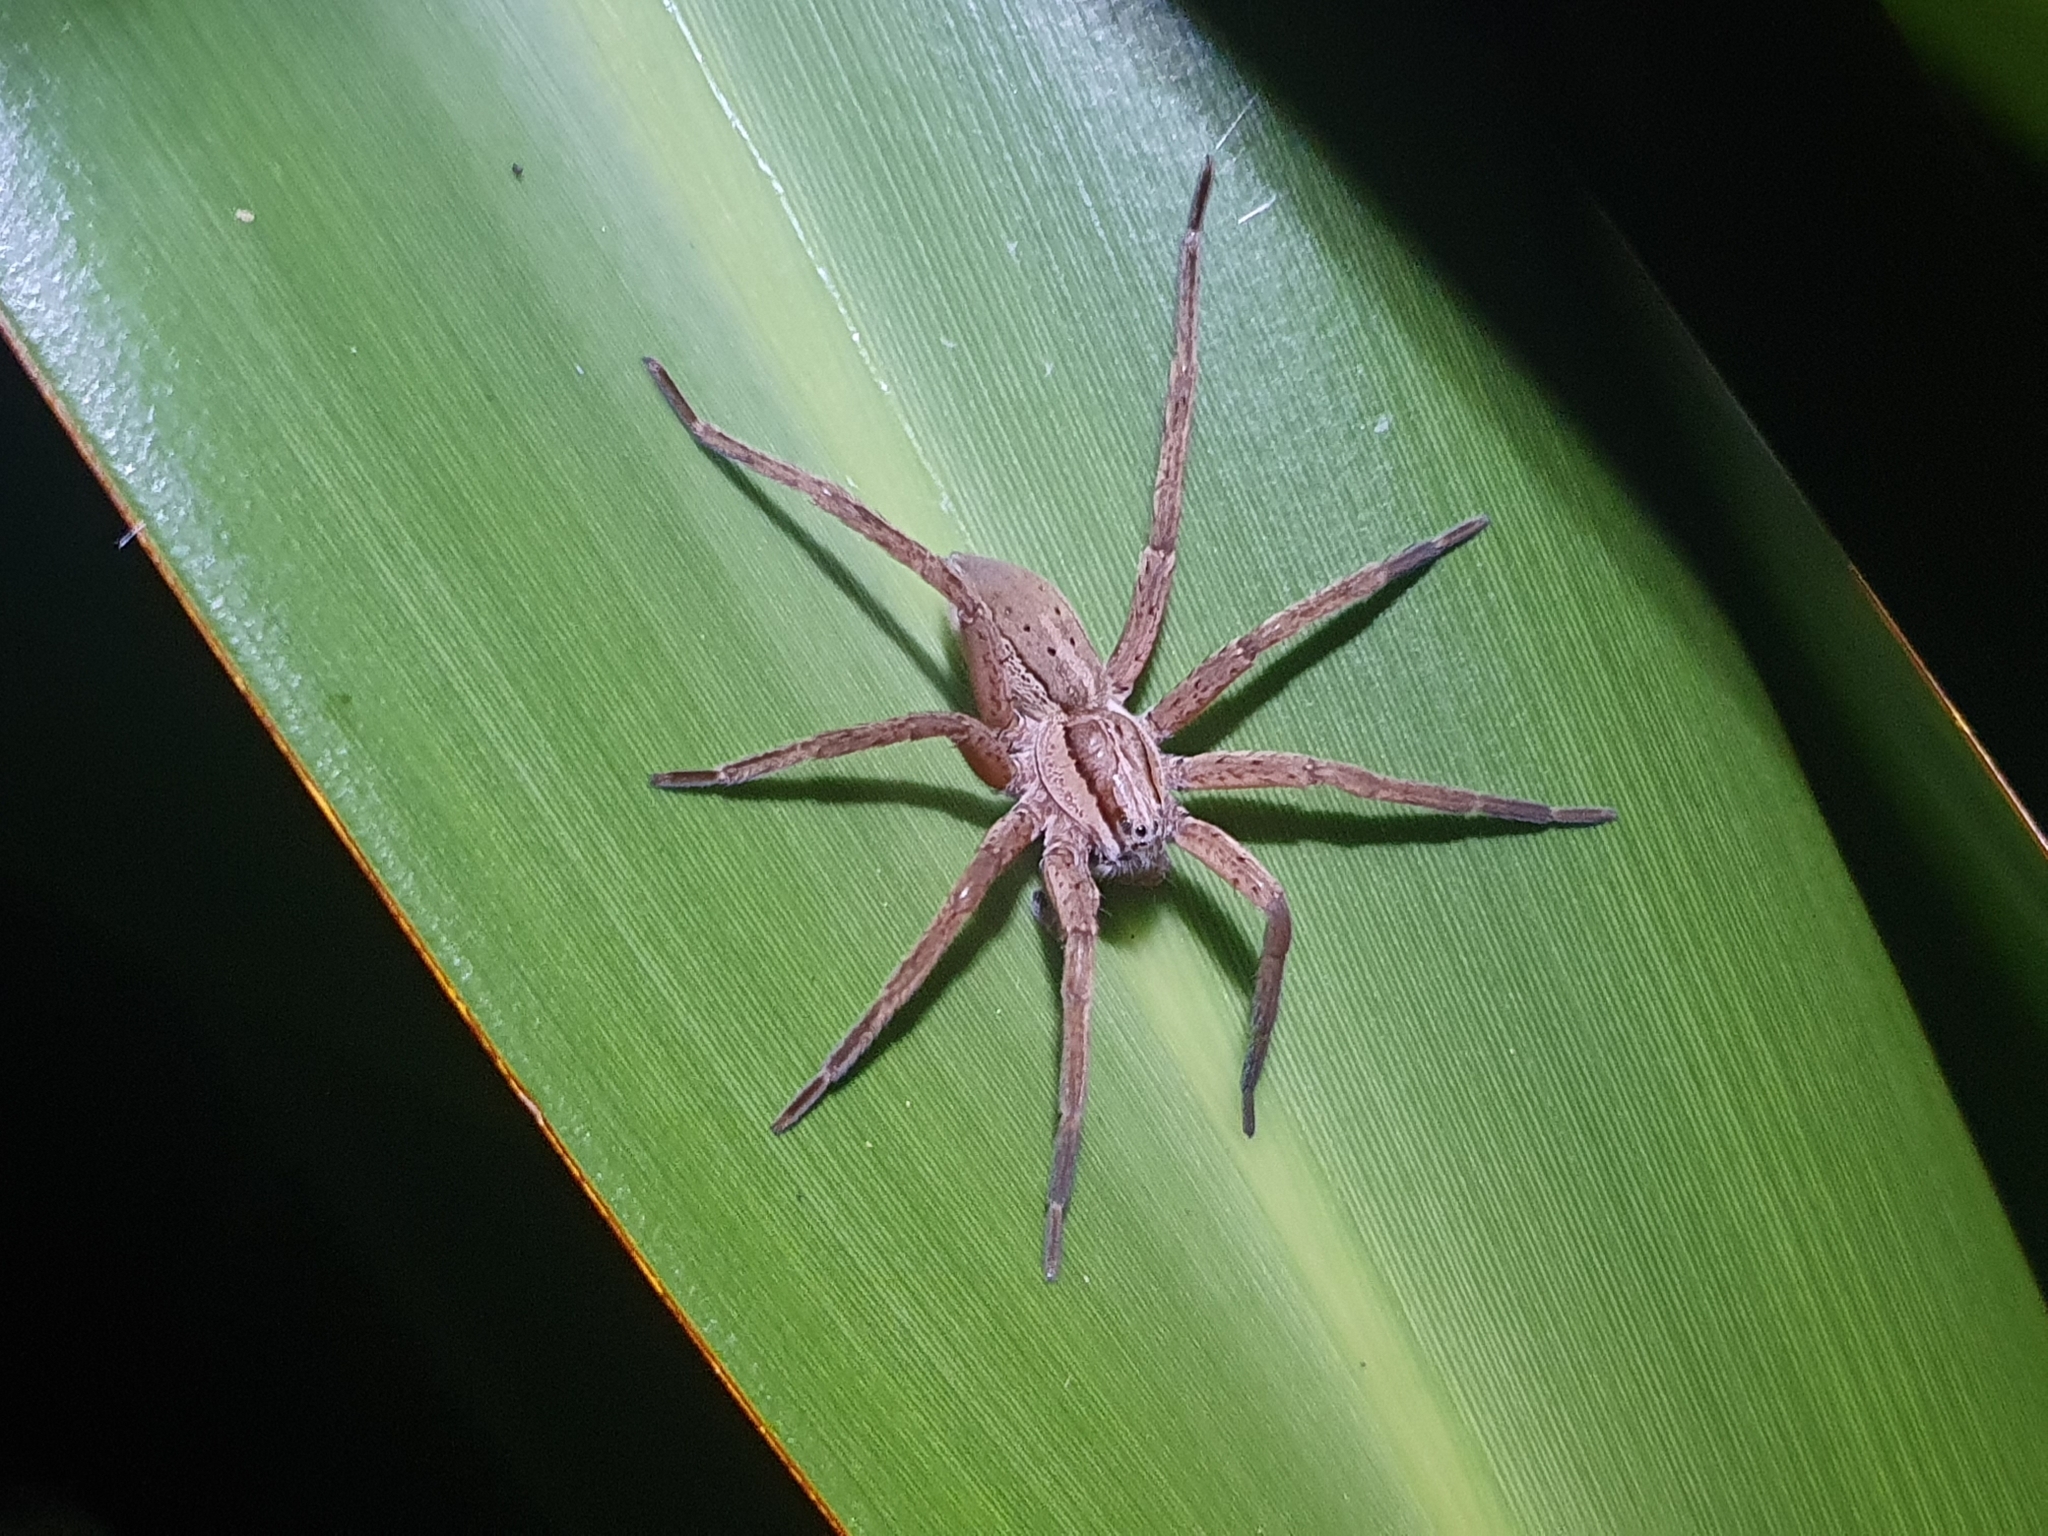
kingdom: Animalia
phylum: Arthropoda
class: Arachnida
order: Araneae
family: Pisauridae
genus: Dolomedes
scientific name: Dolomedes minor
